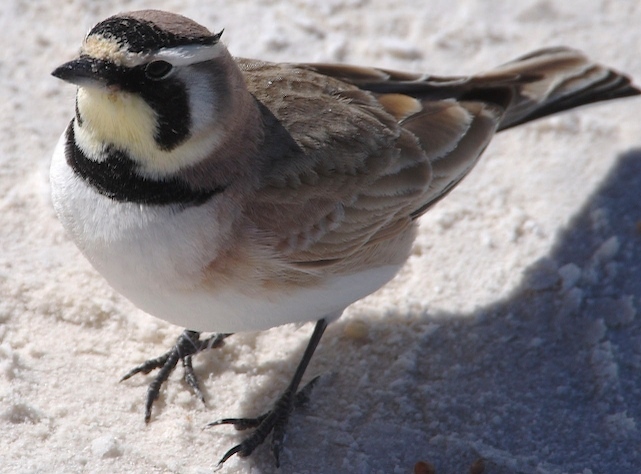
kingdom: Animalia
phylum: Chordata
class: Aves
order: Passeriformes
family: Alaudidae
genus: Eremophila
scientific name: Eremophila alpestris
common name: Horned lark
